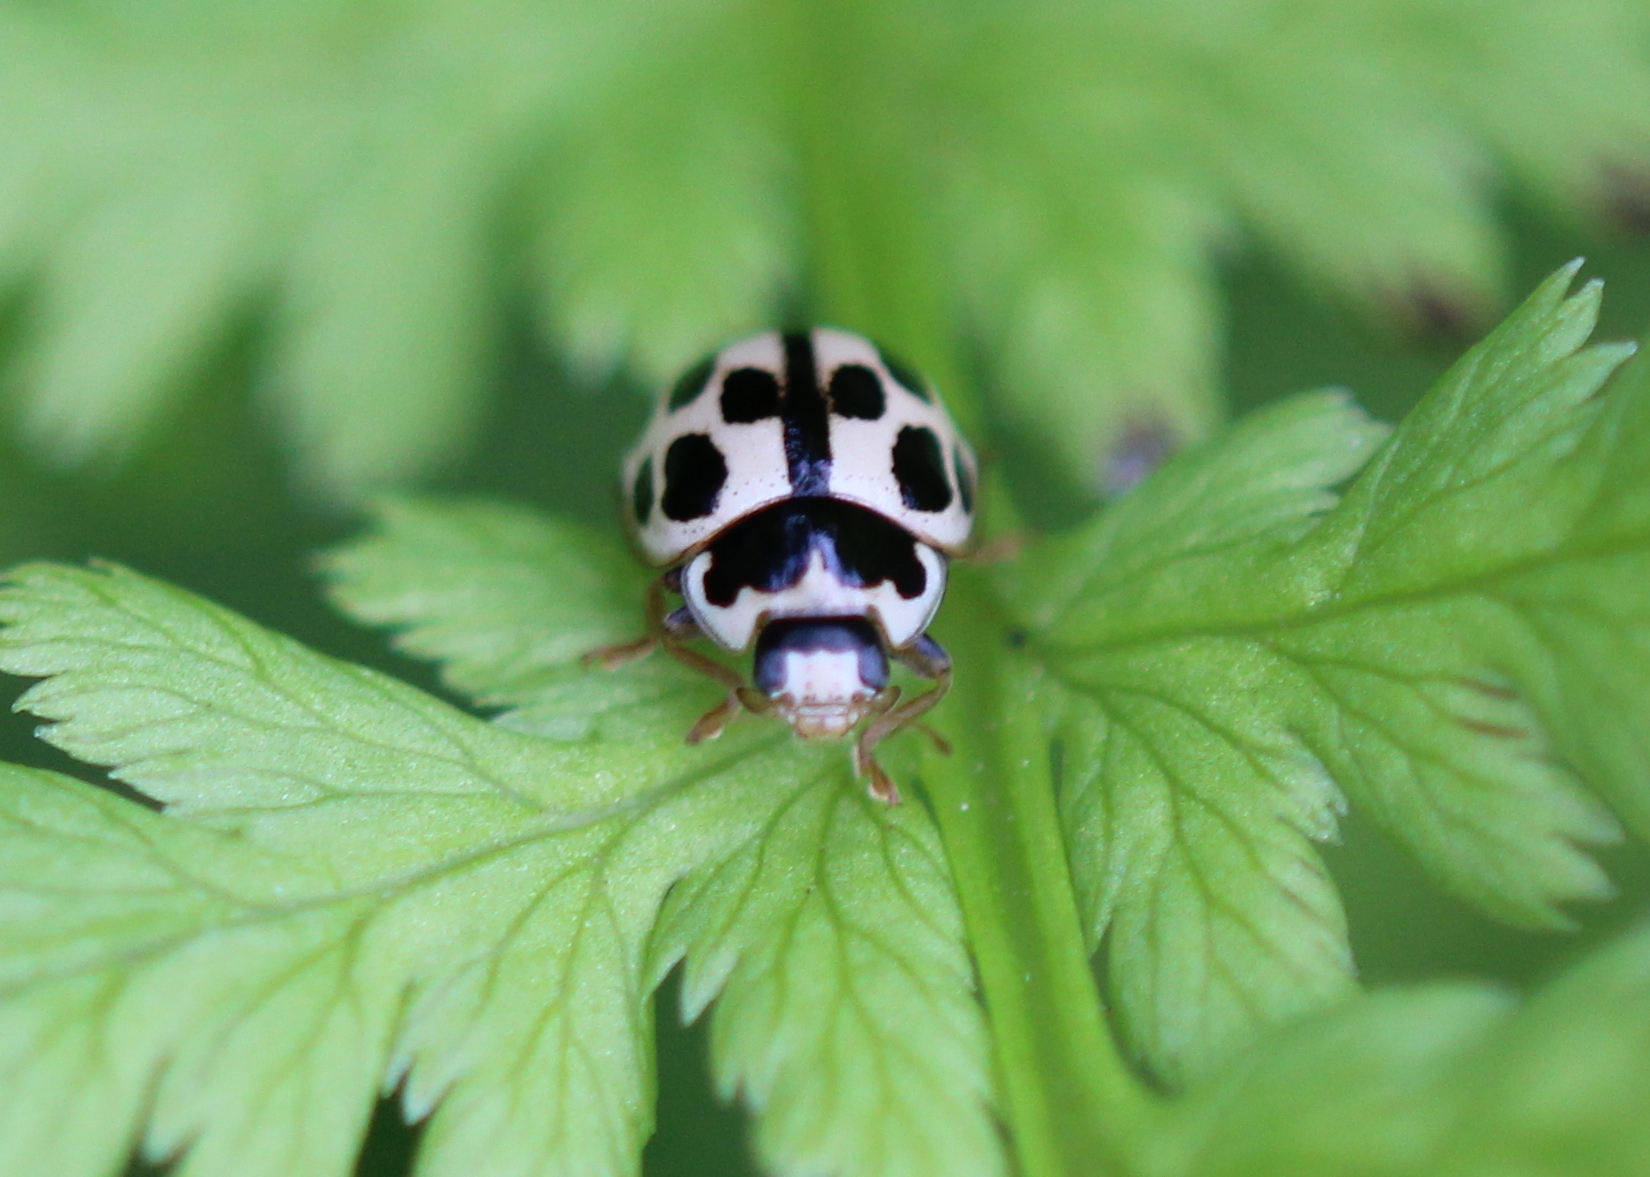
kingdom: Animalia
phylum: Arthropoda
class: Insecta
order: Coleoptera
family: Coccinellidae
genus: Propylaea
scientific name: Propylaea quatuordecimpunctata
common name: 14-spotted ladybird beetle
